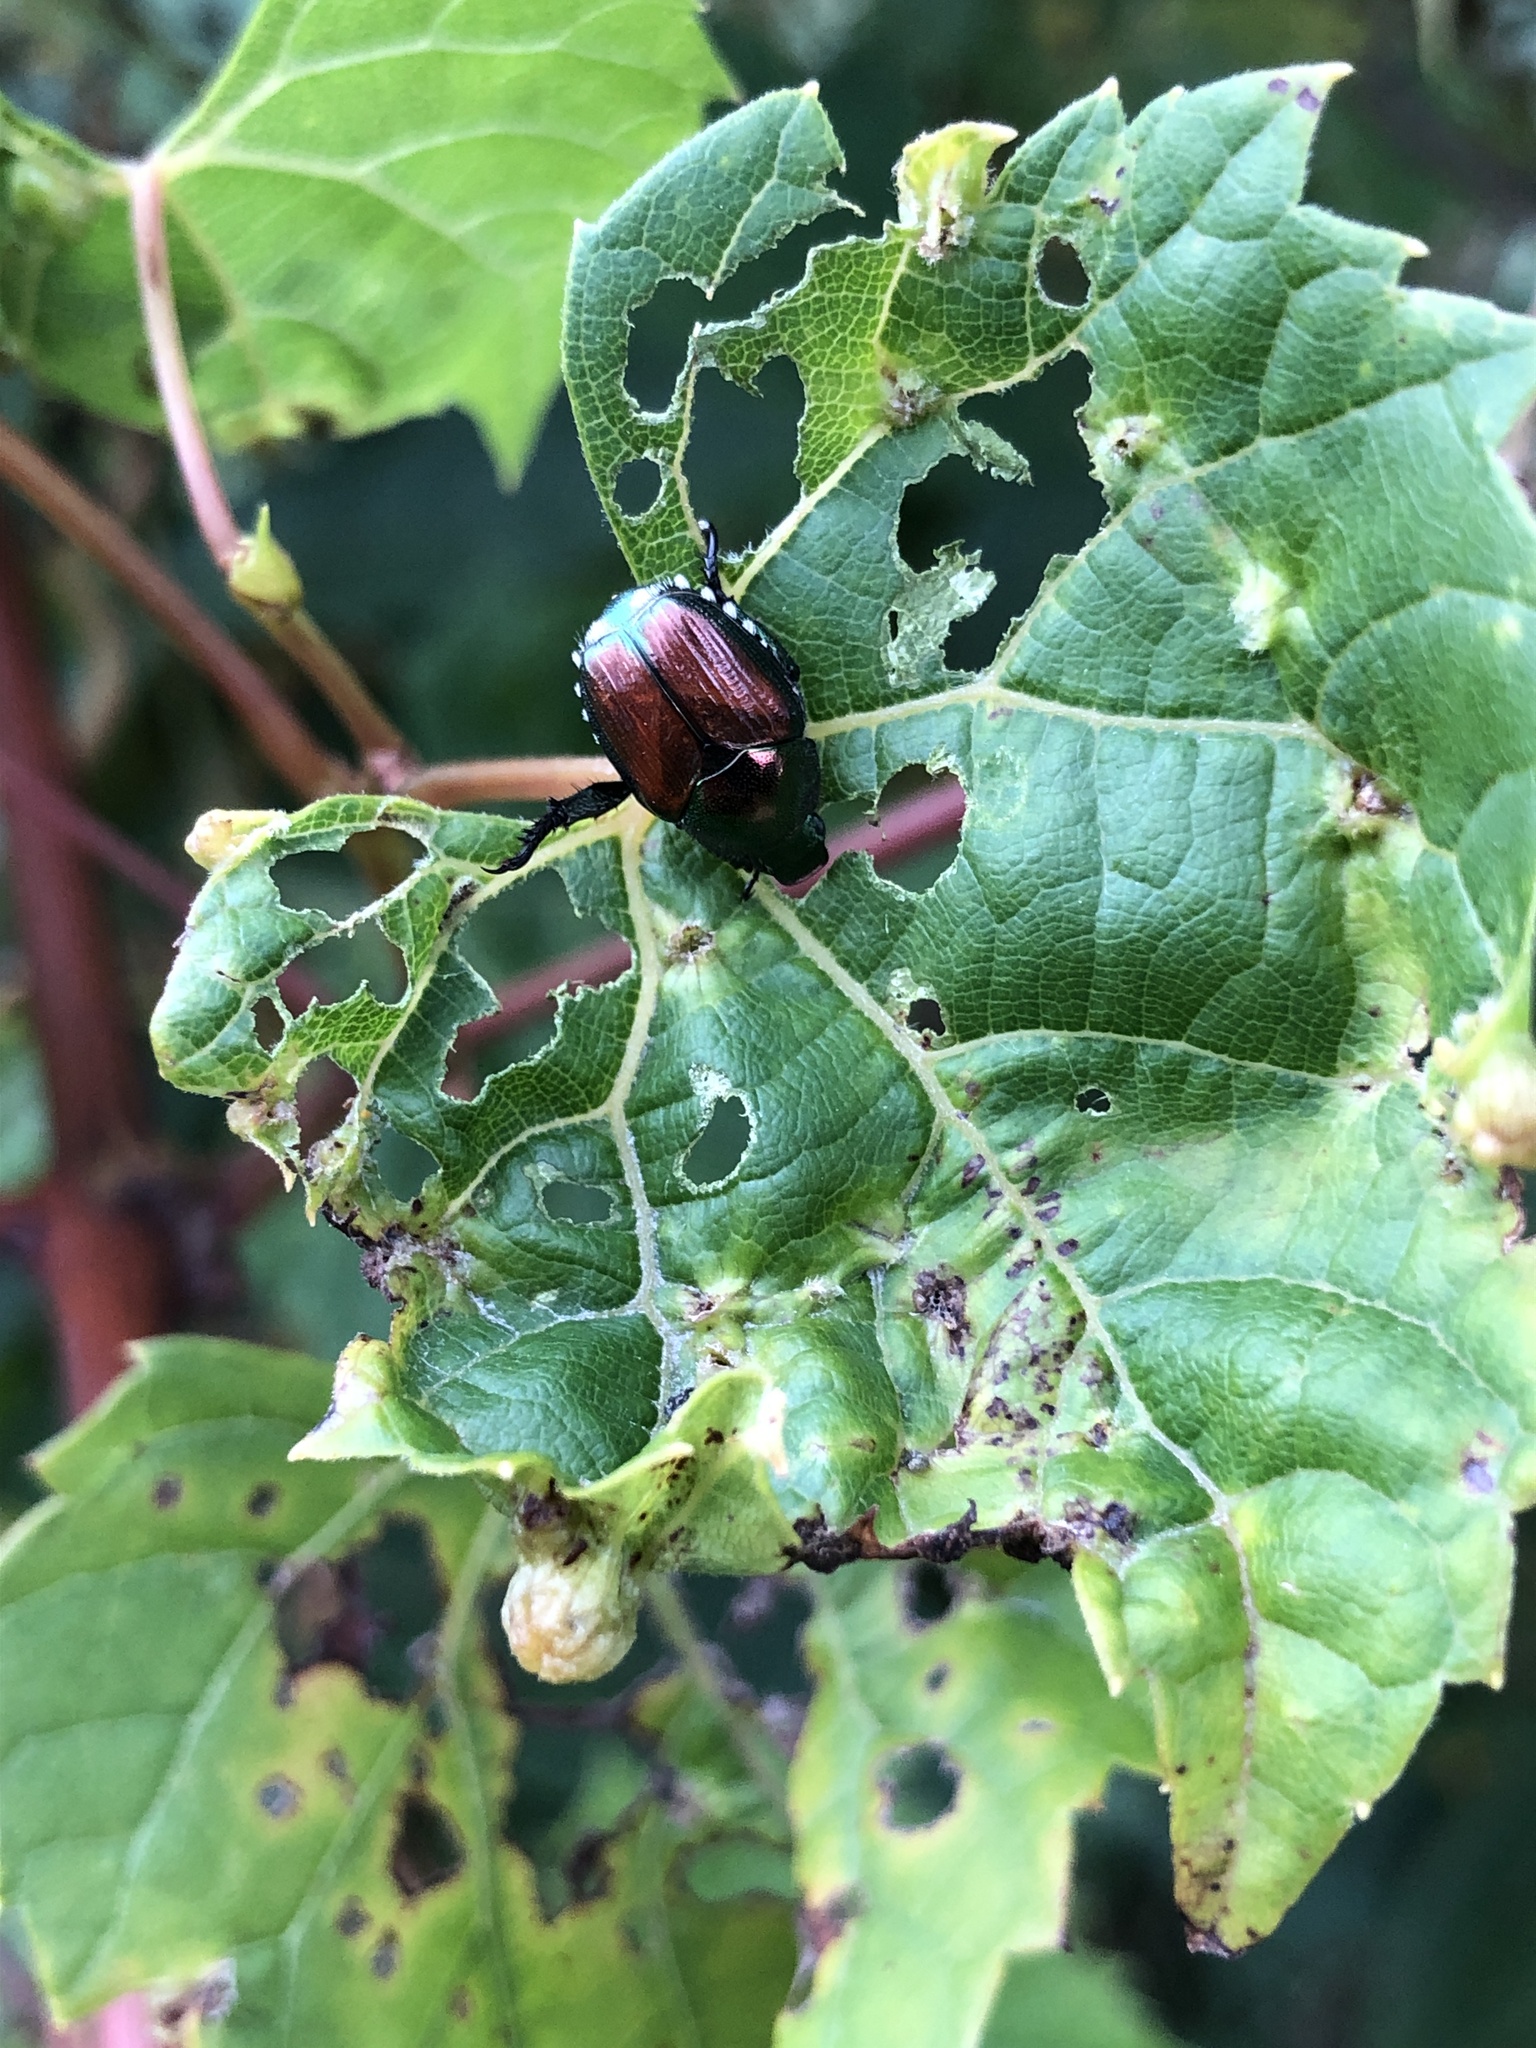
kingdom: Animalia
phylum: Arthropoda
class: Insecta
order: Coleoptera
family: Scarabaeidae
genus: Popillia
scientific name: Popillia japonica
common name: Japanese beetle
